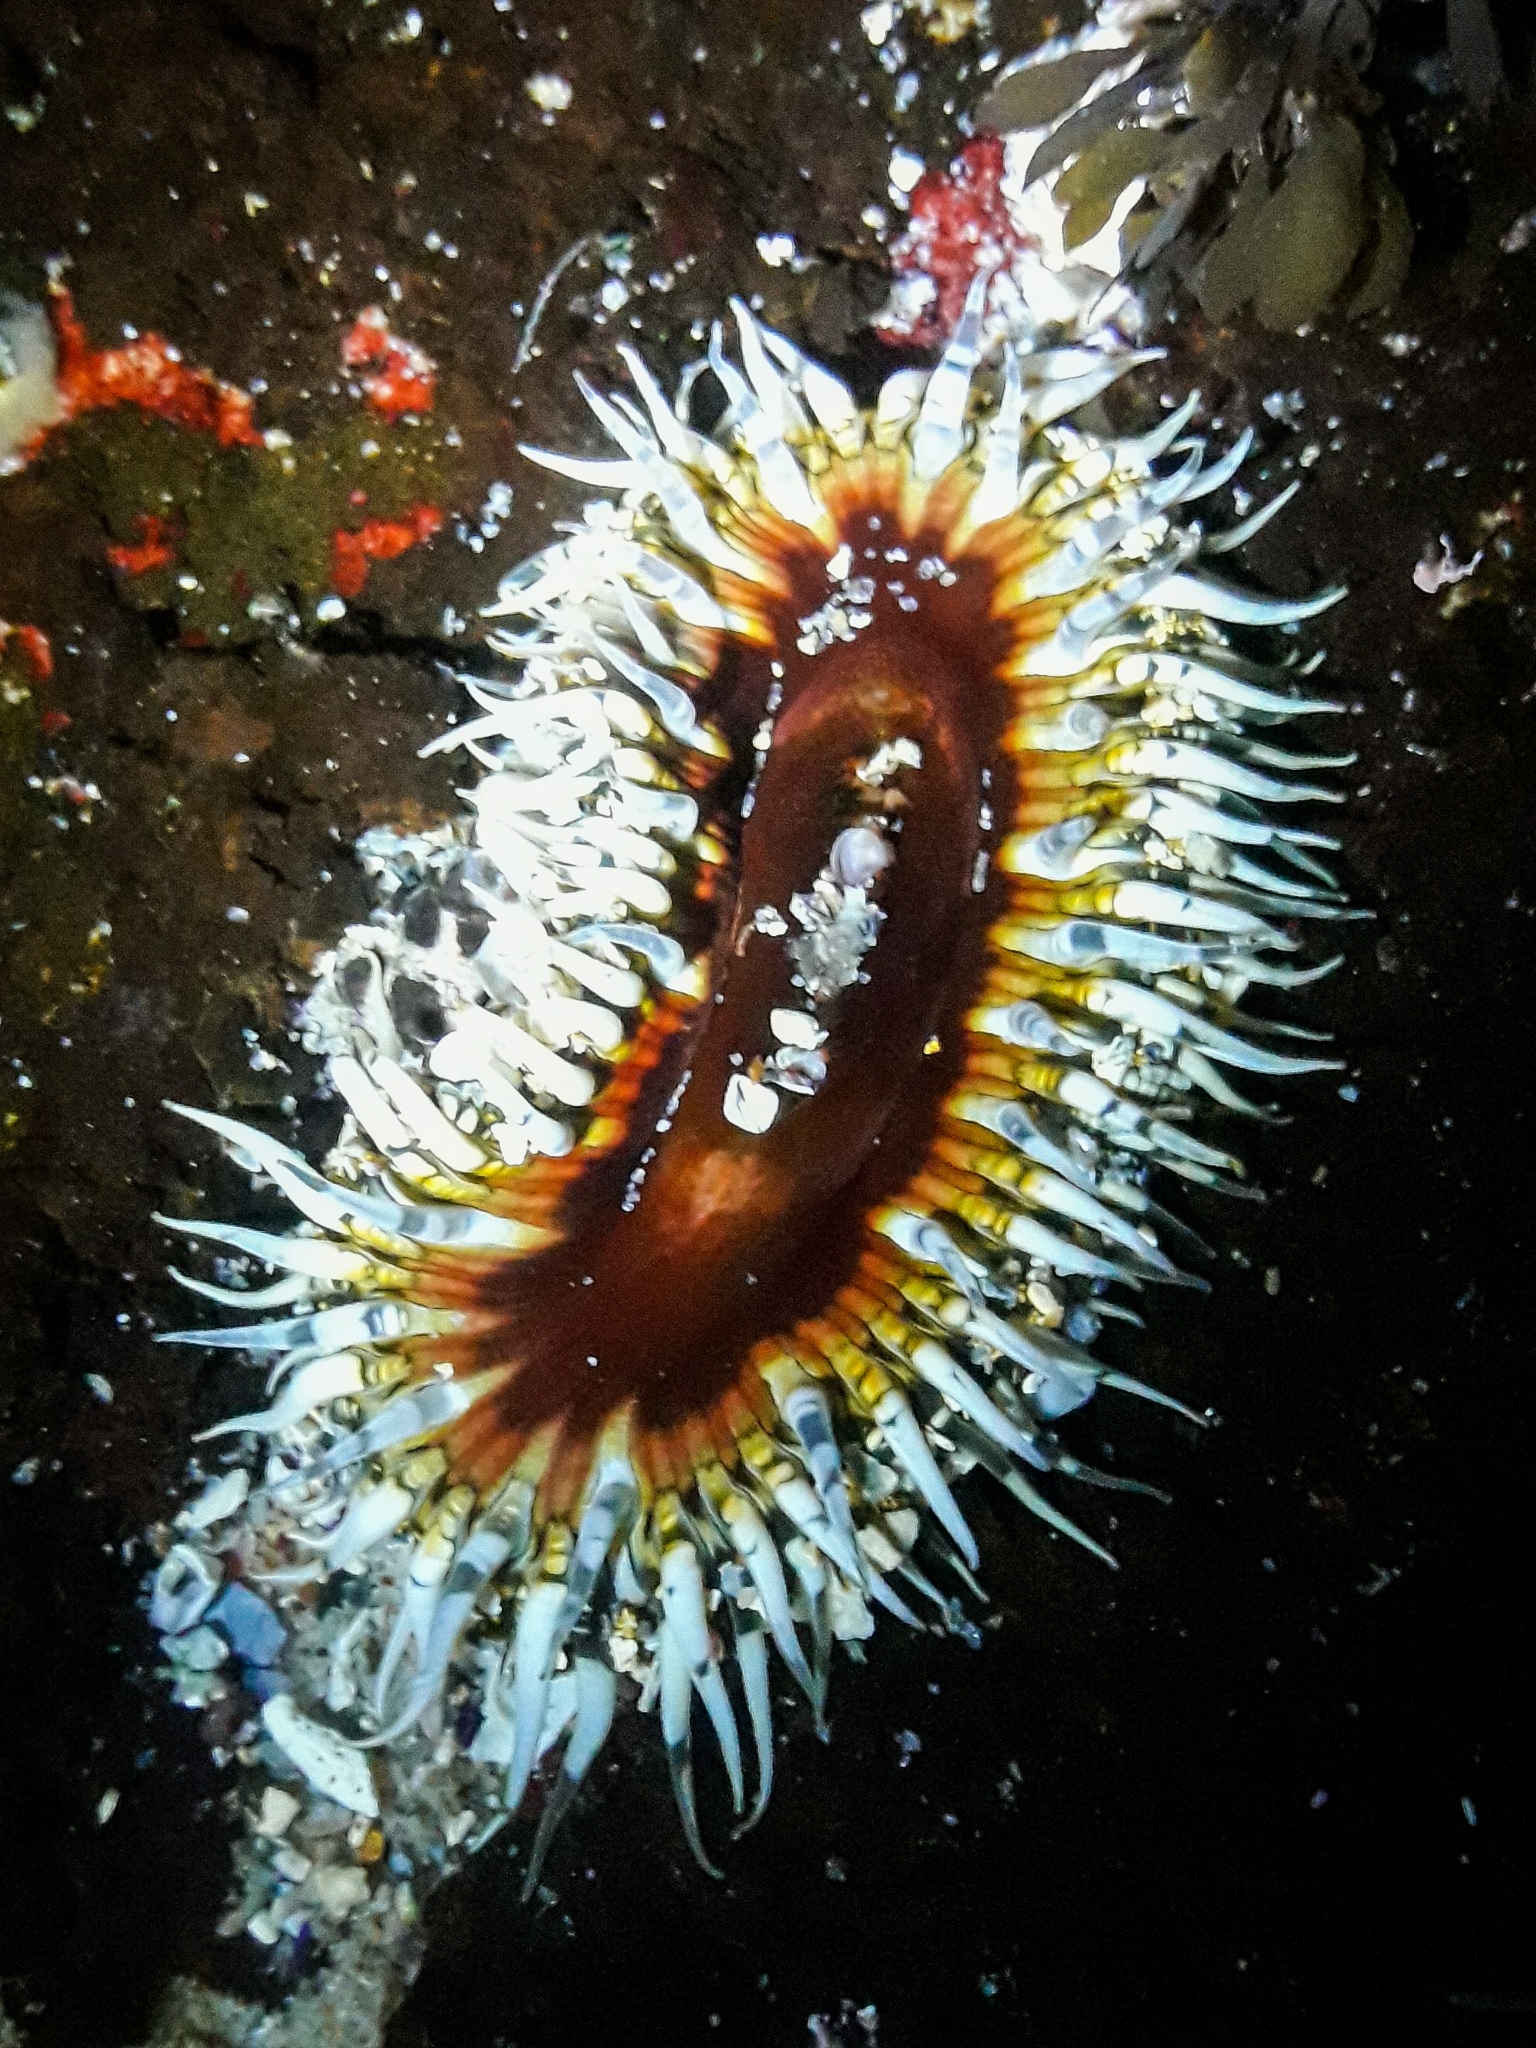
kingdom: Animalia
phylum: Cnidaria
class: Anthozoa
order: Actiniaria
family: Actiniidae
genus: Oulactis
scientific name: Oulactis muscosa
